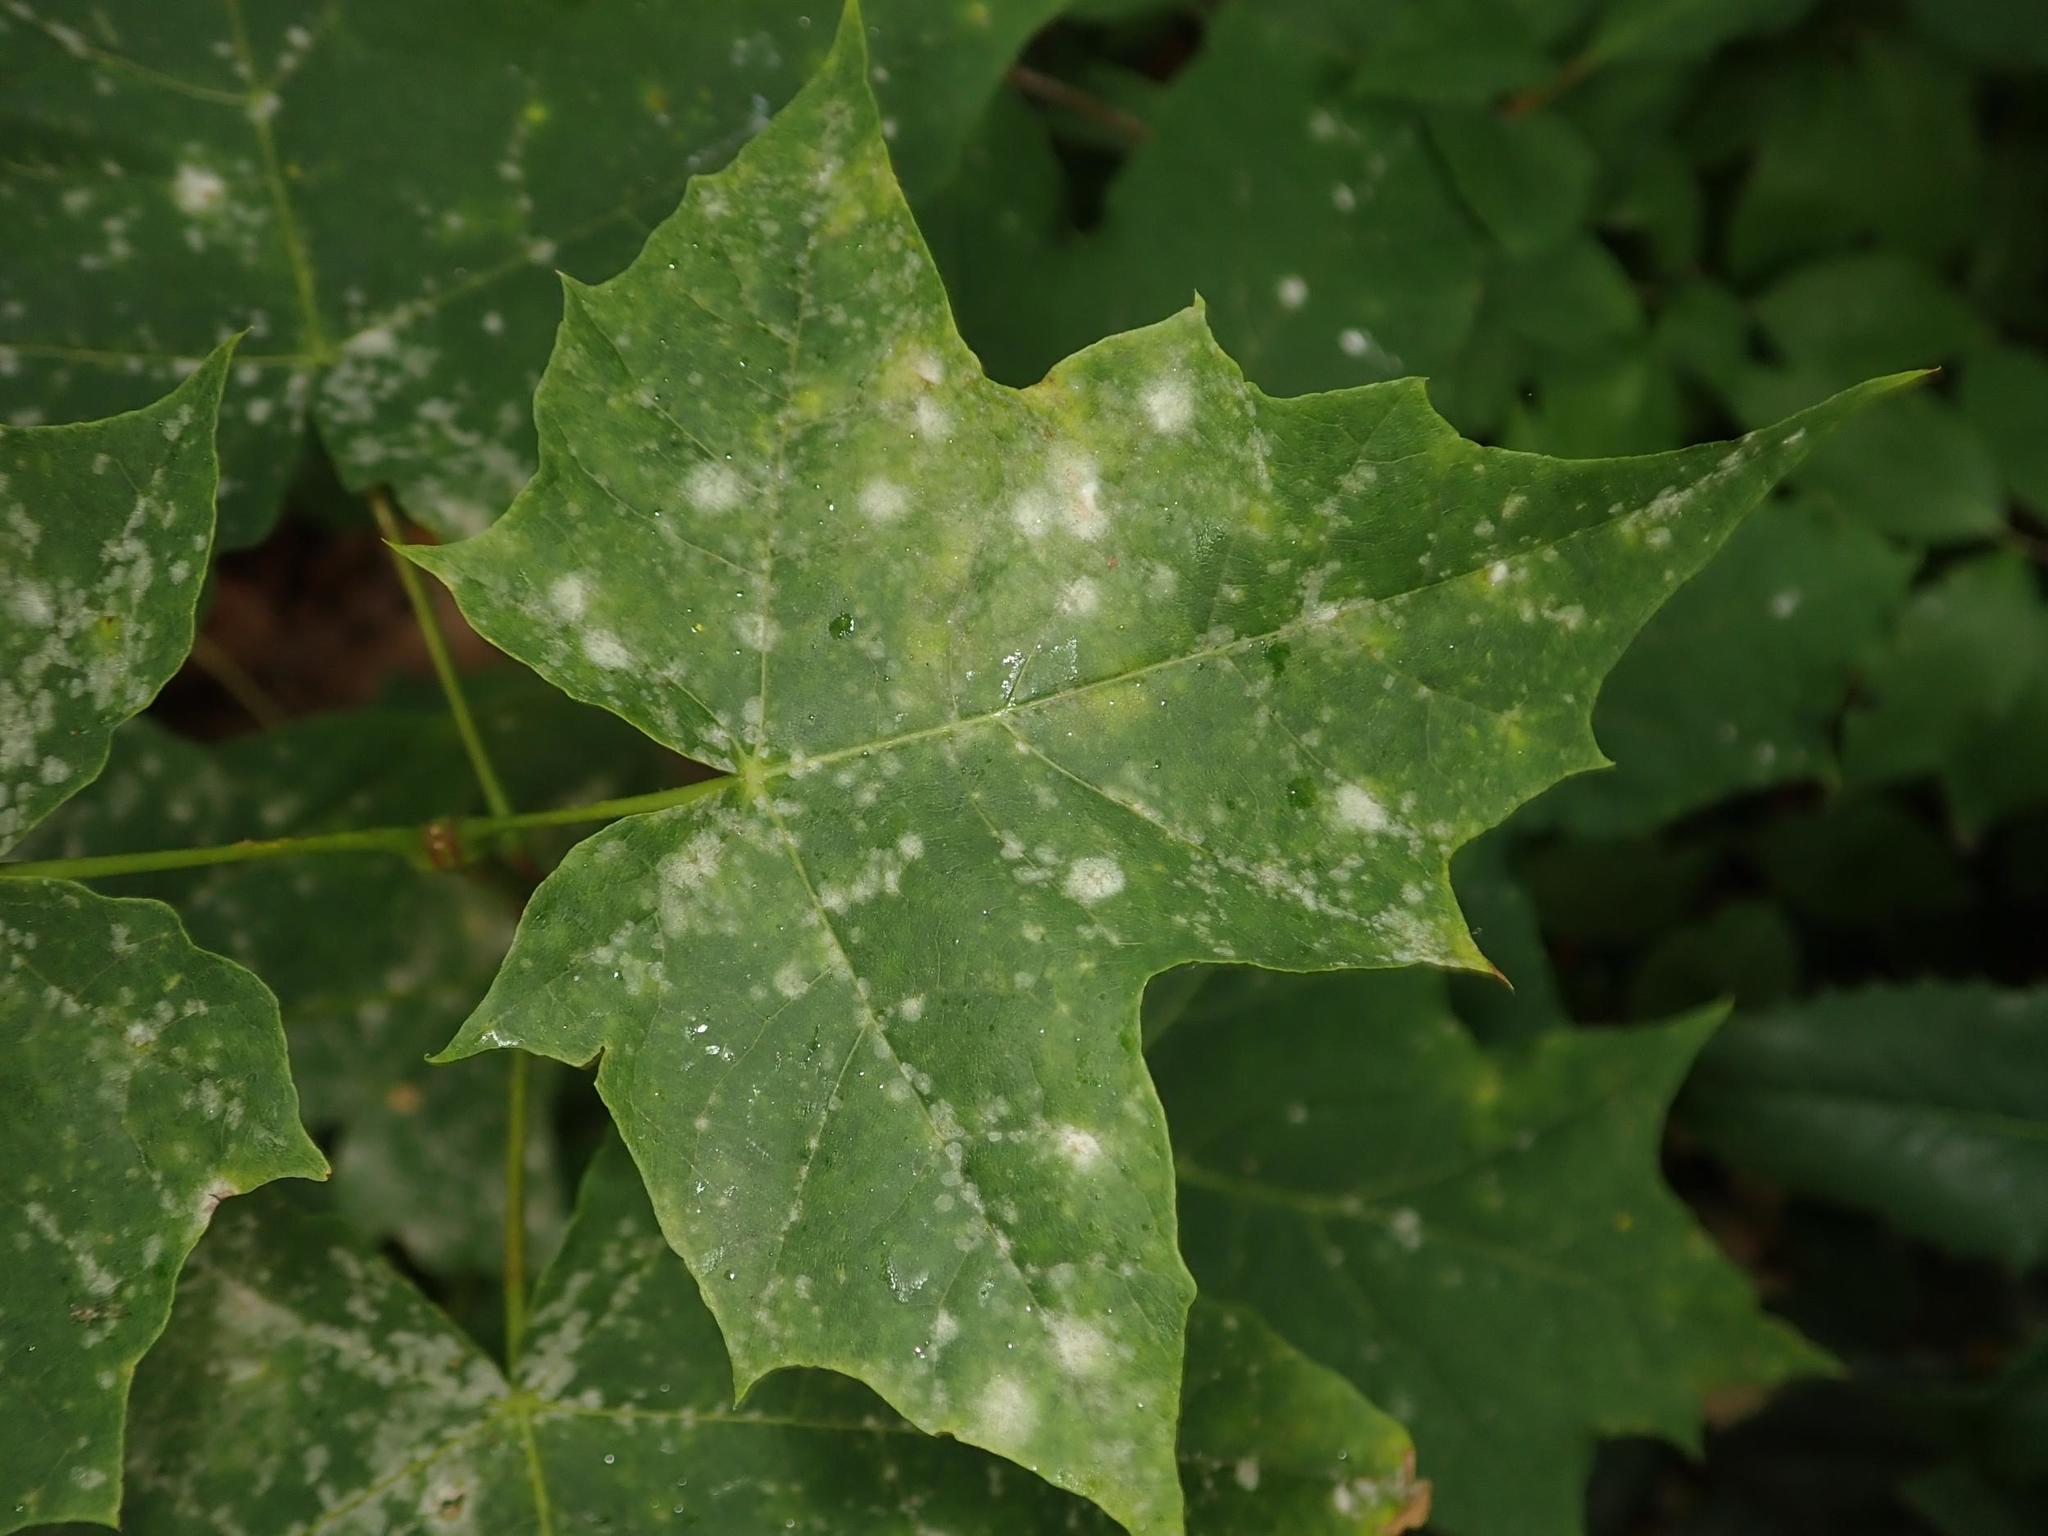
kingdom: Plantae
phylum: Tracheophyta
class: Magnoliopsida
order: Sapindales
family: Sapindaceae
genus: Acer
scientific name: Acer platanoides
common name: Norway maple
